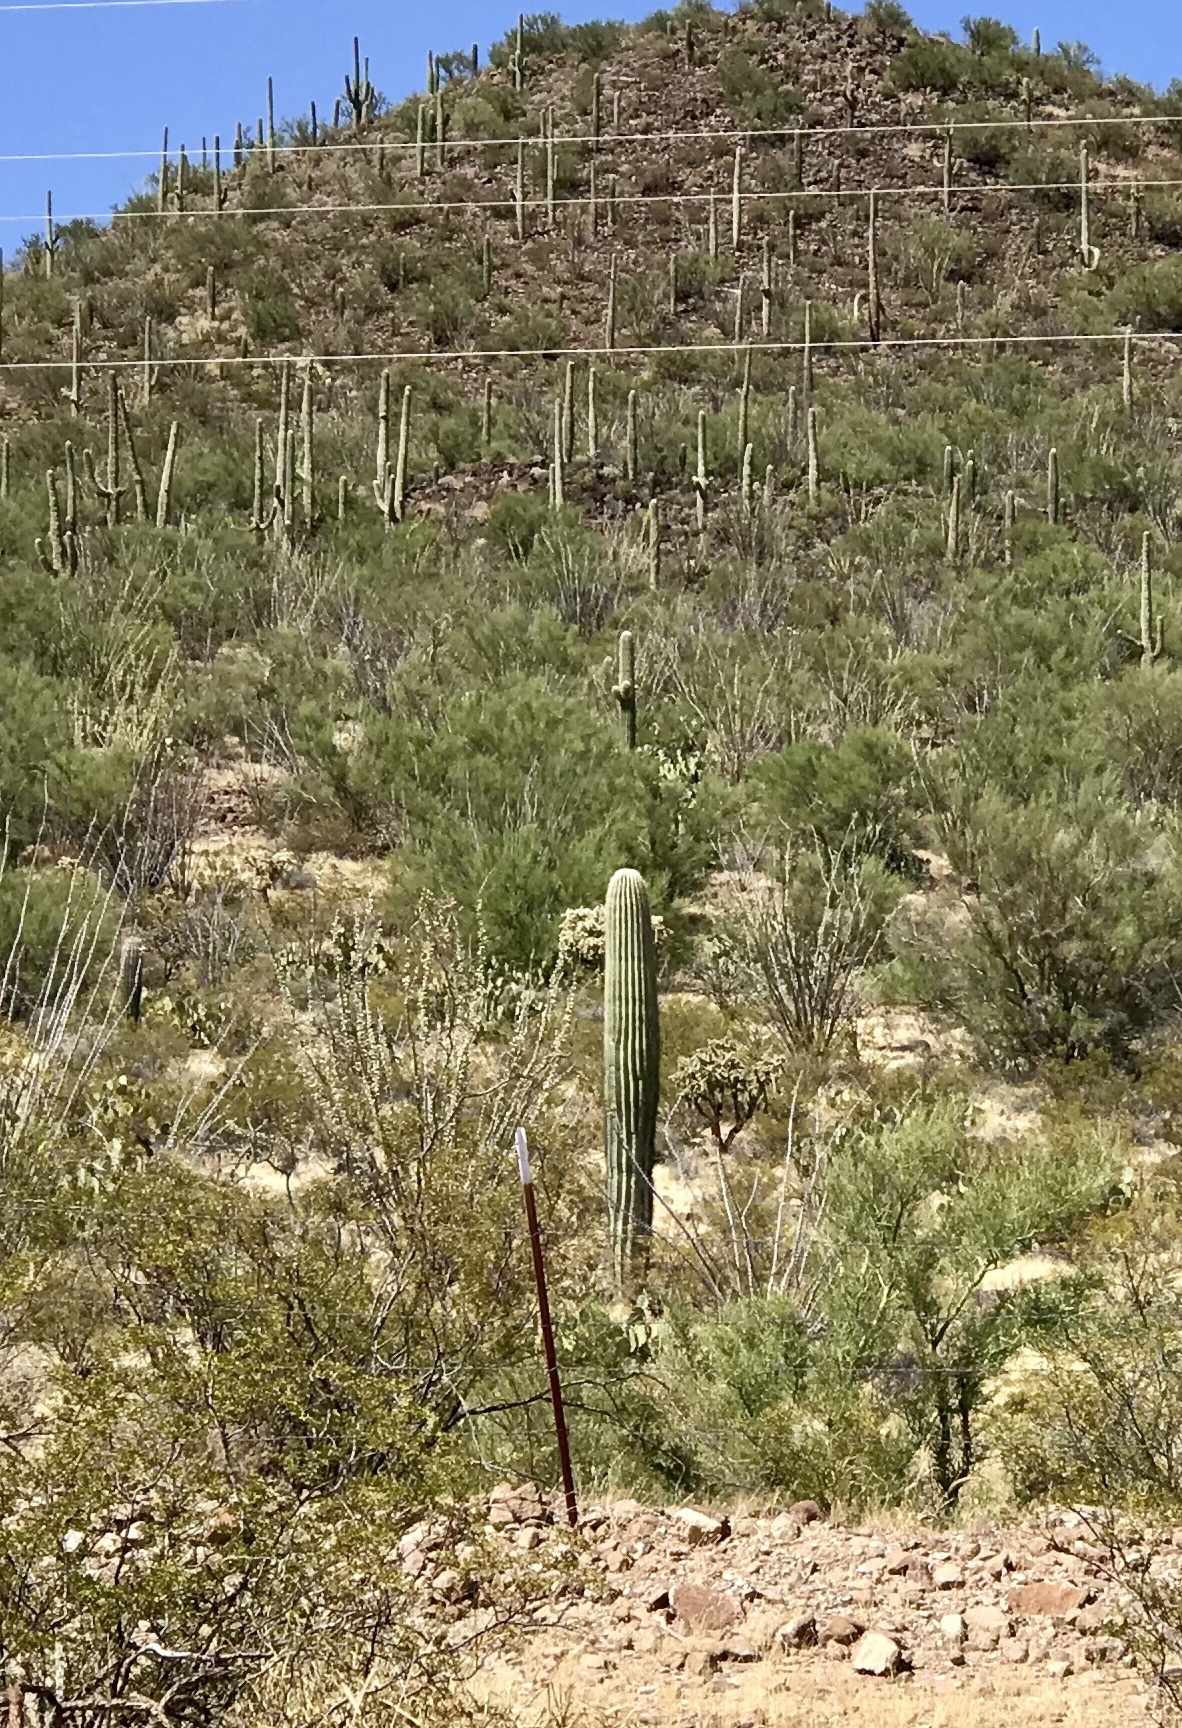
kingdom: Plantae
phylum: Tracheophyta
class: Magnoliopsida
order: Caryophyllales
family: Cactaceae
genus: Carnegiea
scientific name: Carnegiea gigantea
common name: Saguaro
